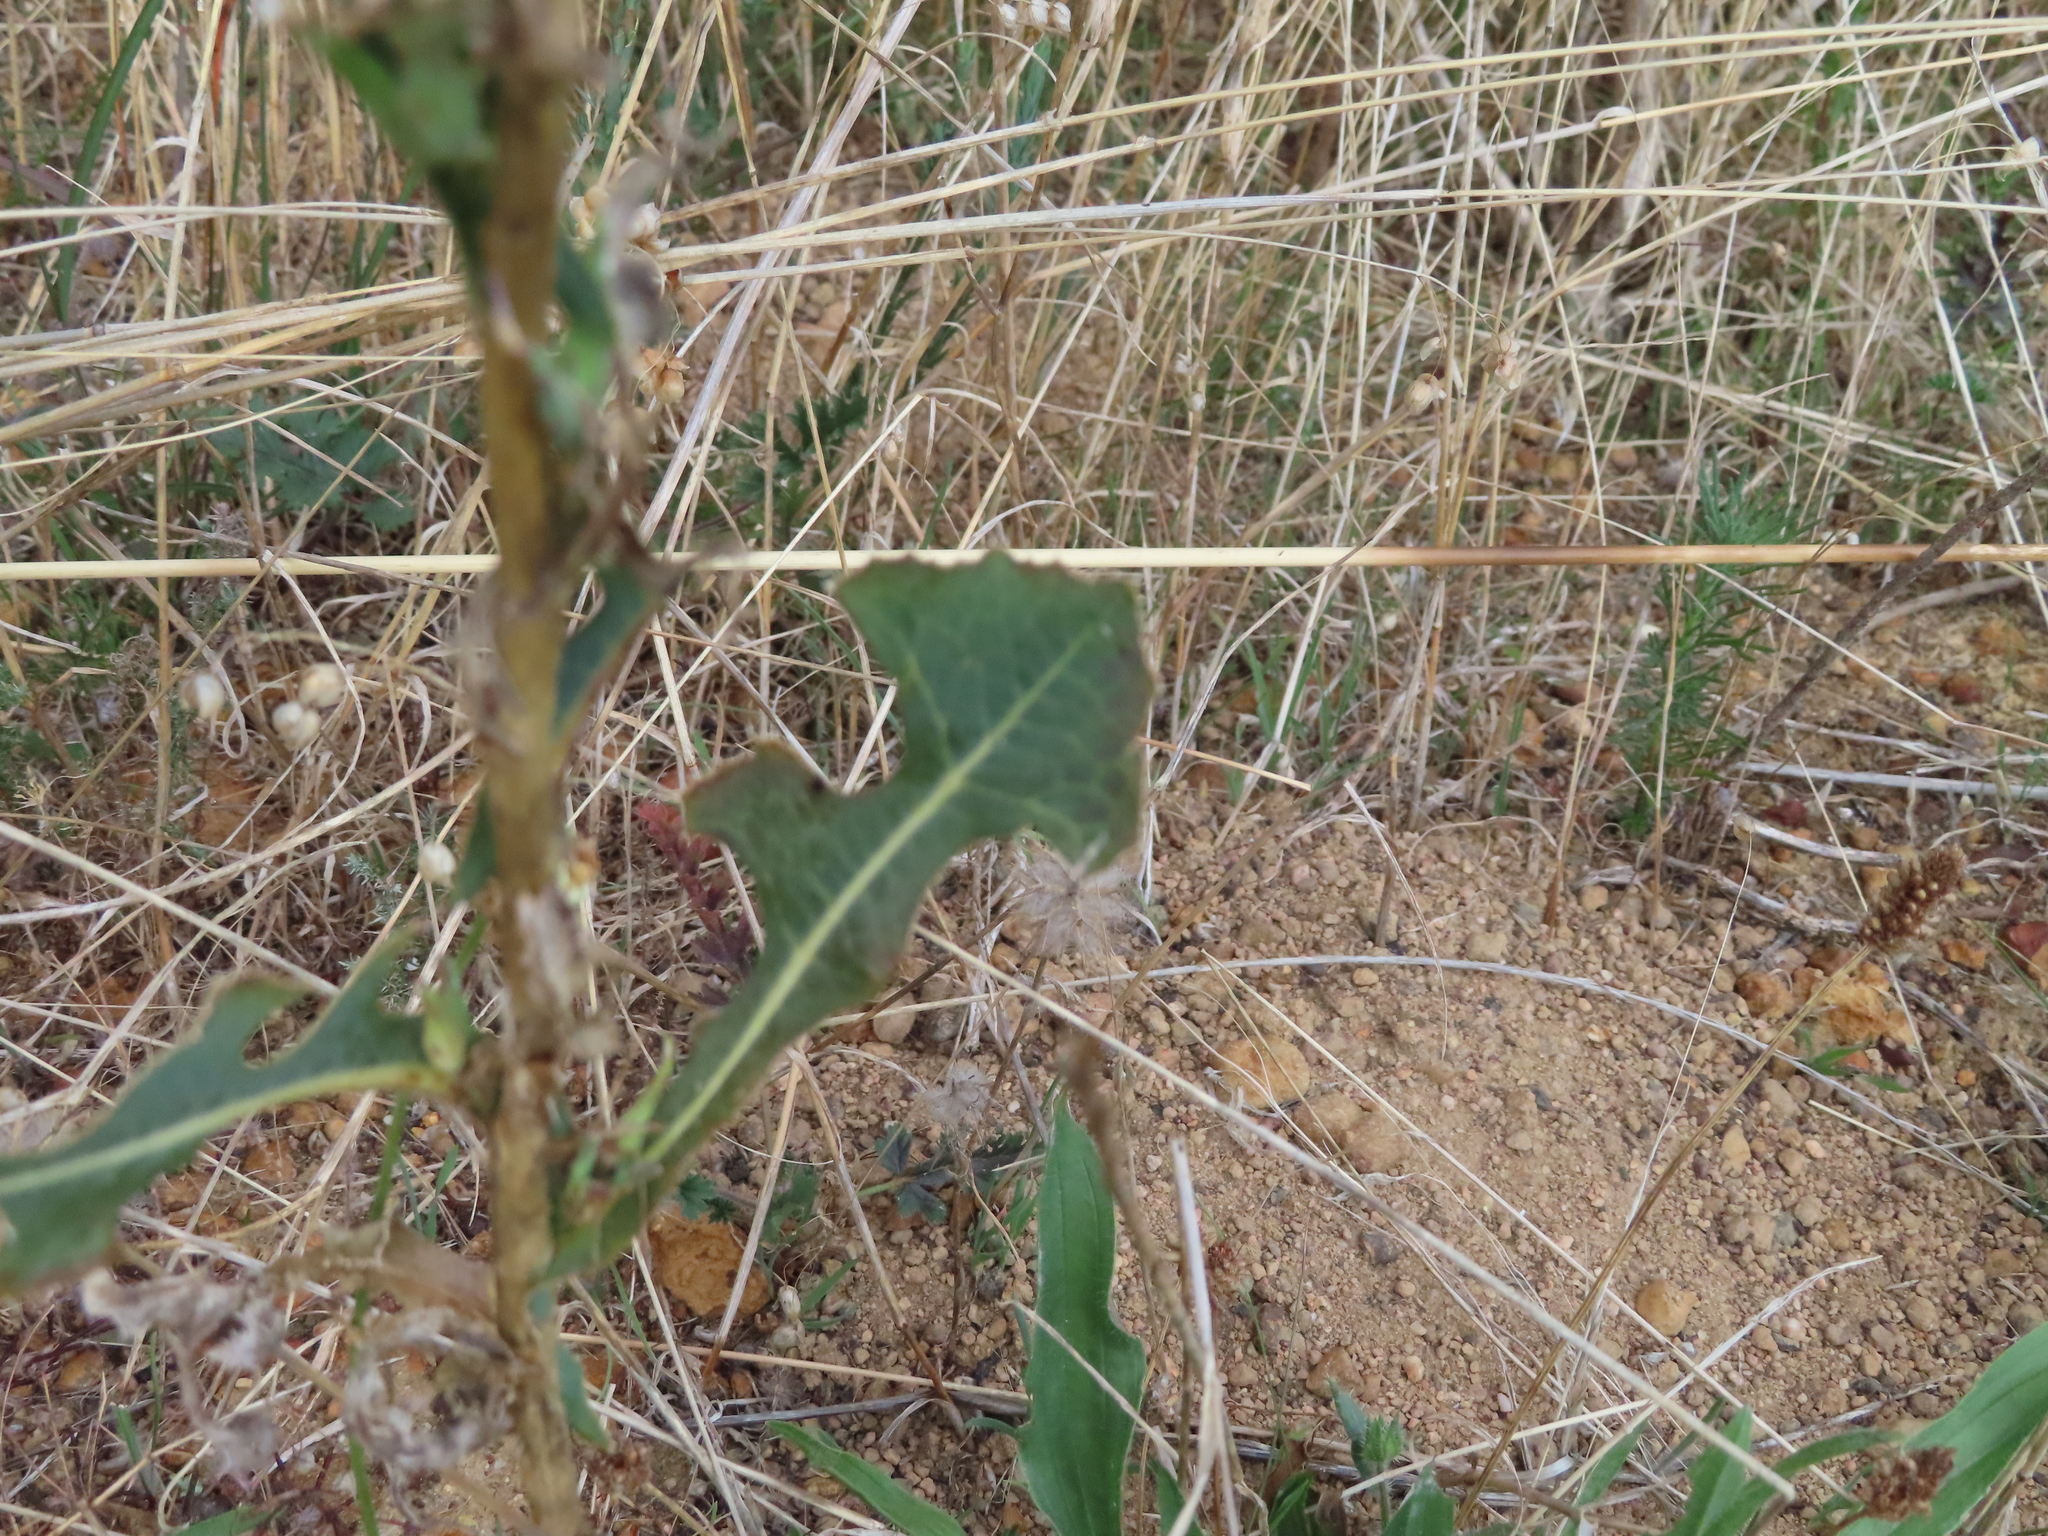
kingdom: Plantae
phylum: Tracheophyta
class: Magnoliopsida
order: Asterales
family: Asteraceae
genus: Lactuca
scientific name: Lactuca serriola
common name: Prickly lettuce
